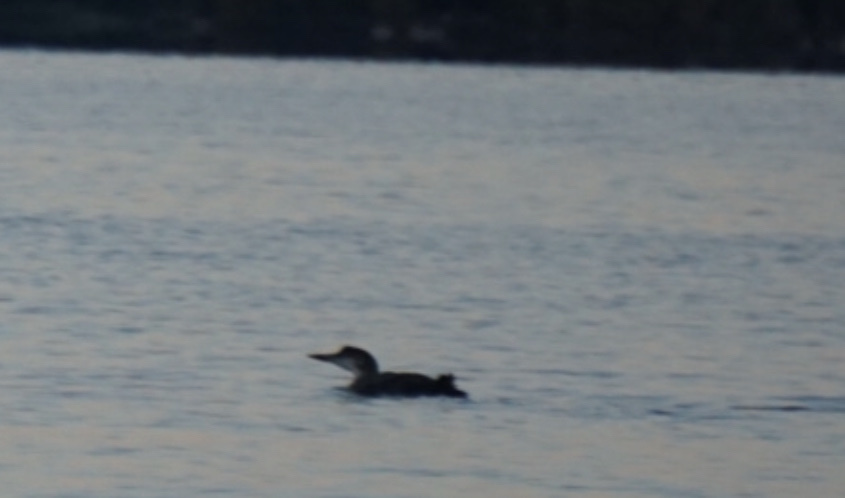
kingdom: Animalia
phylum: Chordata
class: Aves
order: Gaviiformes
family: Gaviidae
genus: Gavia
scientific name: Gavia immer
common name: Common loon
